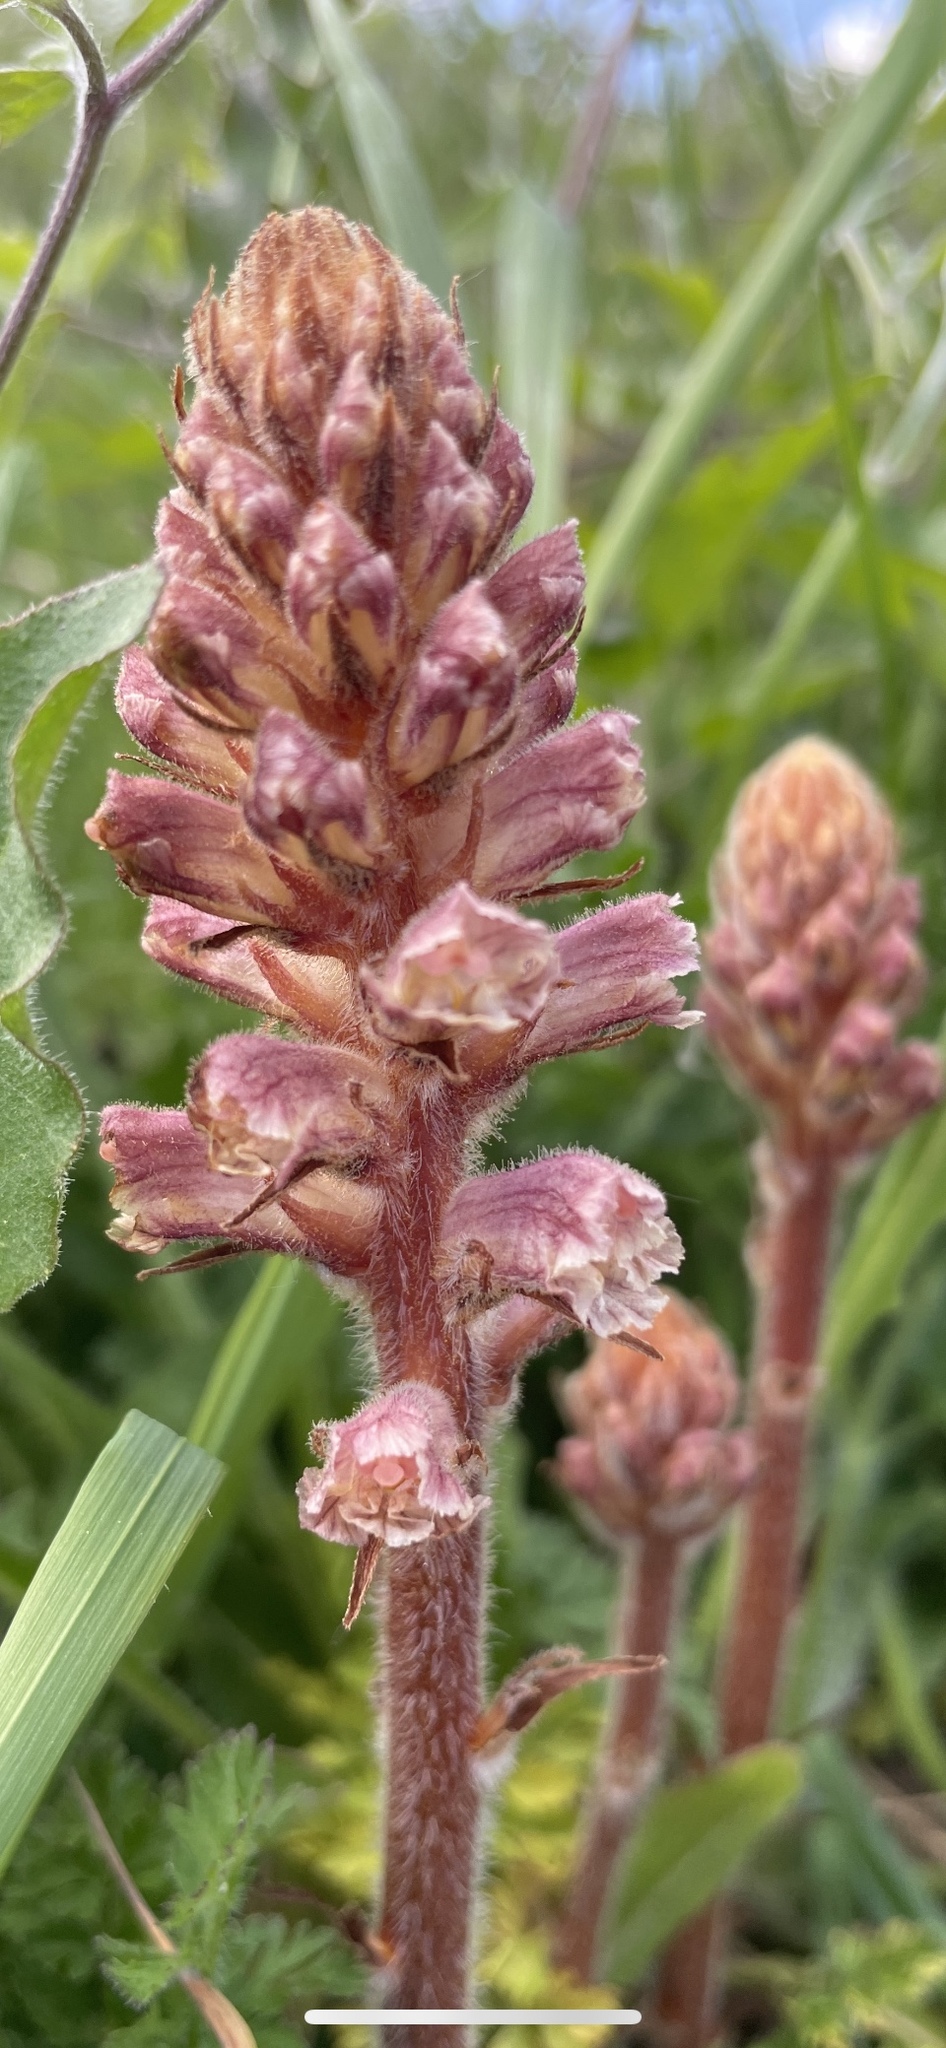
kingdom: Plantae
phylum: Tracheophyta
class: Magnoliopsida
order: Lamiales
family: Orobanchaceae
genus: Orobanche
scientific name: Orobanche minor
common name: Common broomrape
